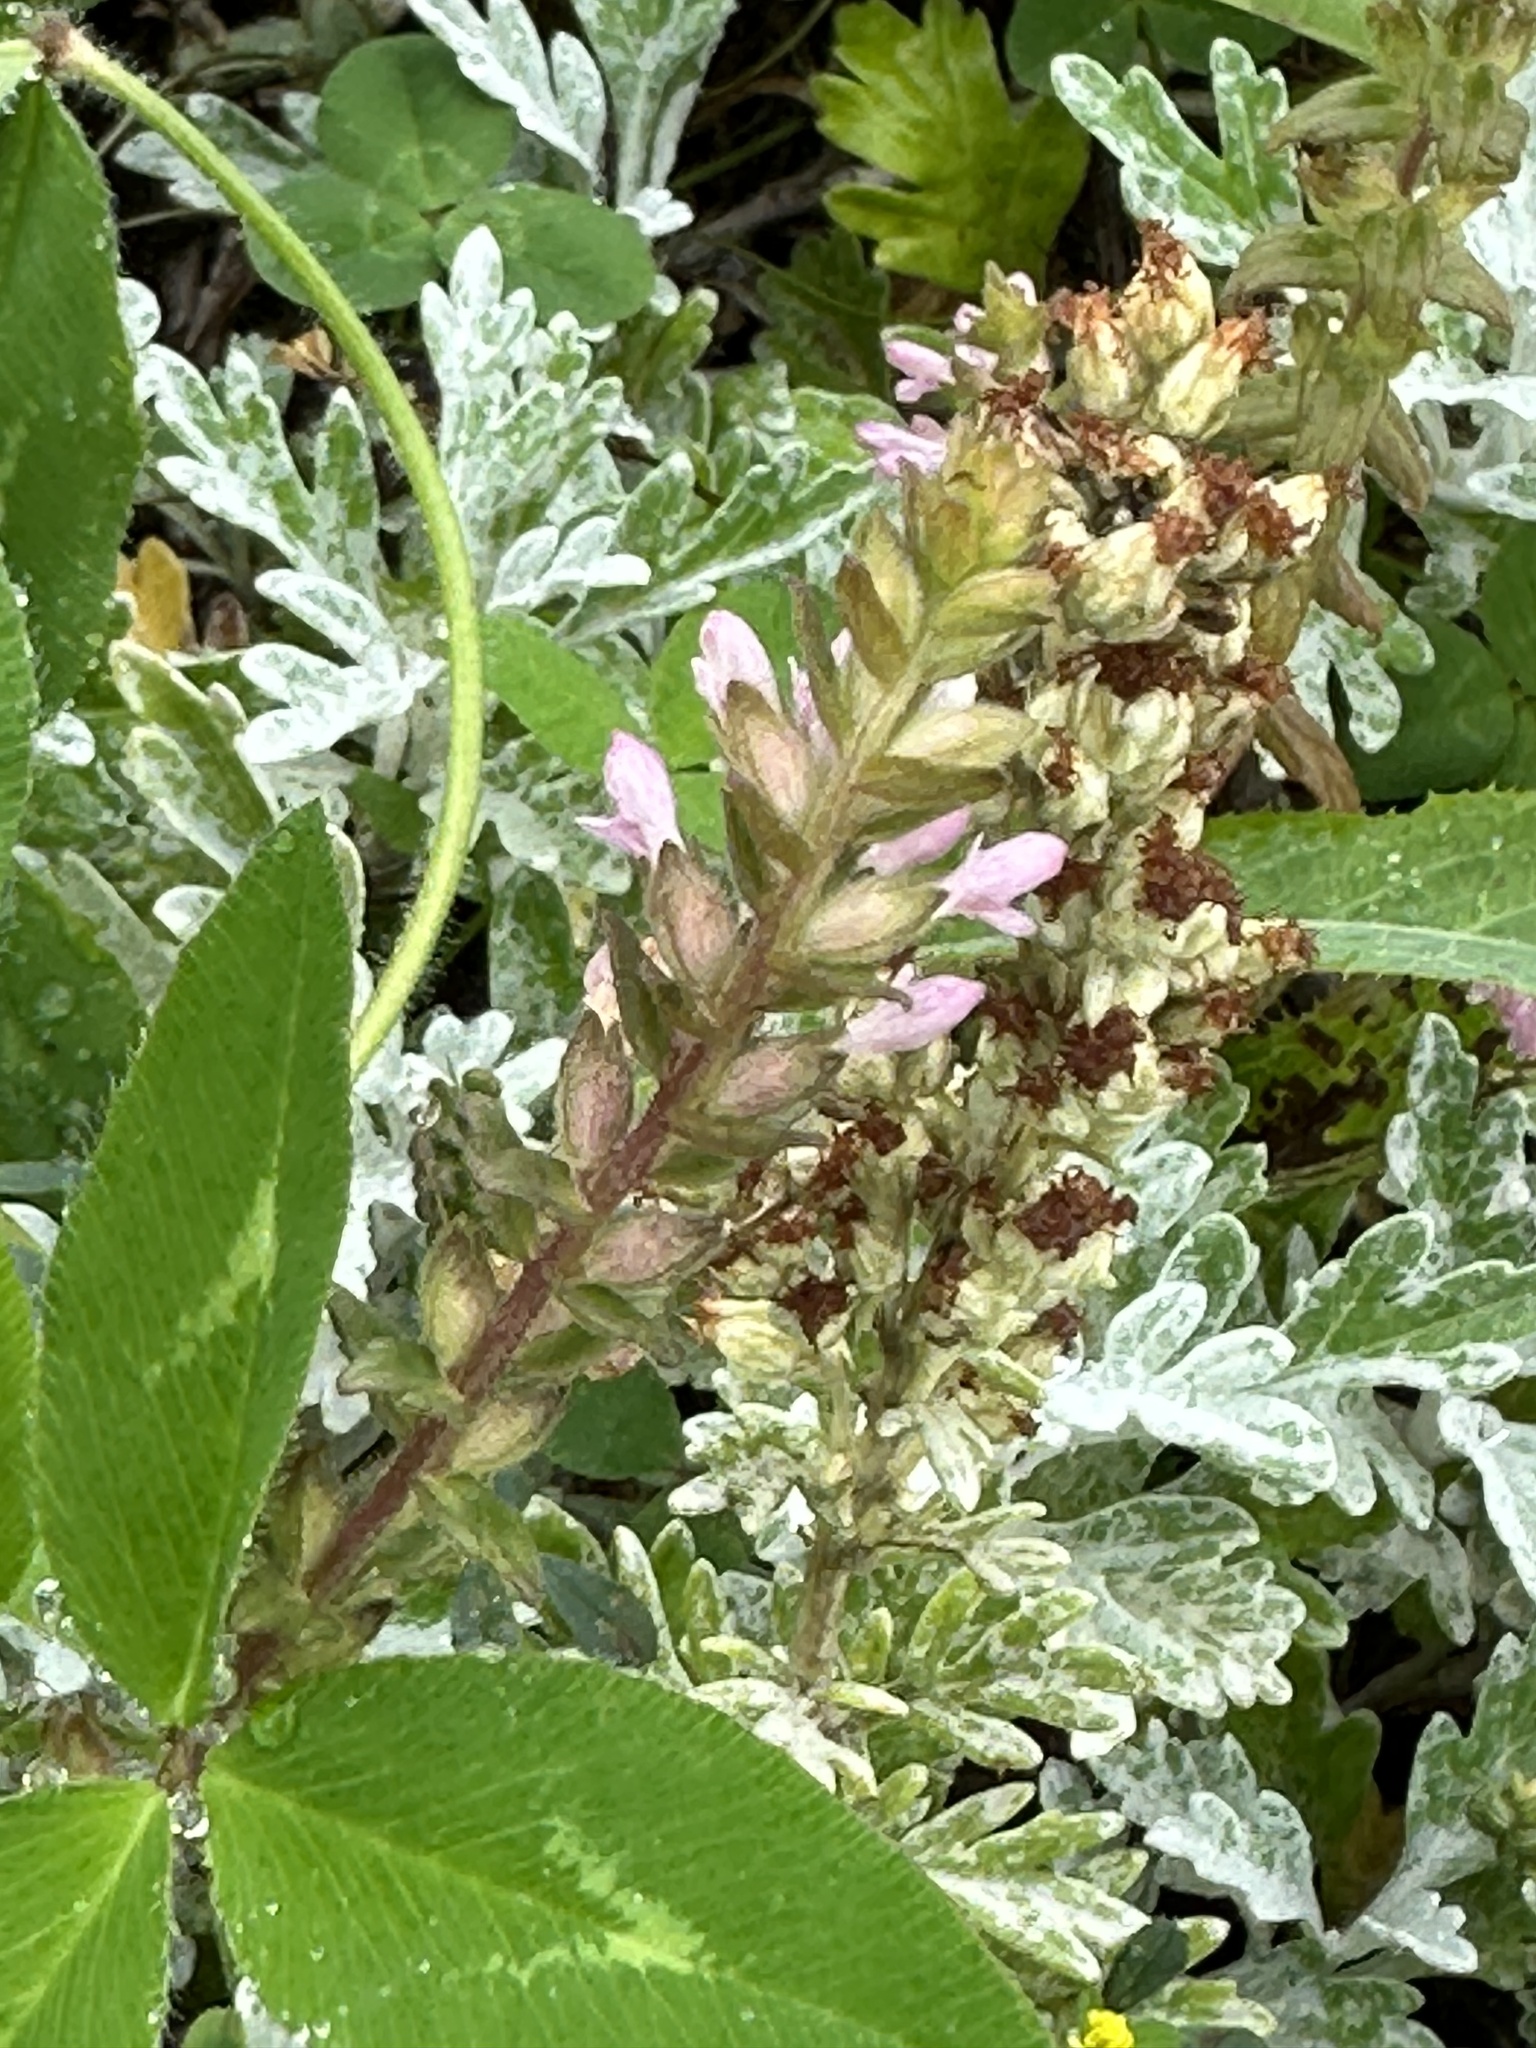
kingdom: Plantae
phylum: Tracheophyta
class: Magnoliopsida
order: Lamiales
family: Orobanchaceae
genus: Odontites
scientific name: Odontites vulgaris
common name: Broomrape
